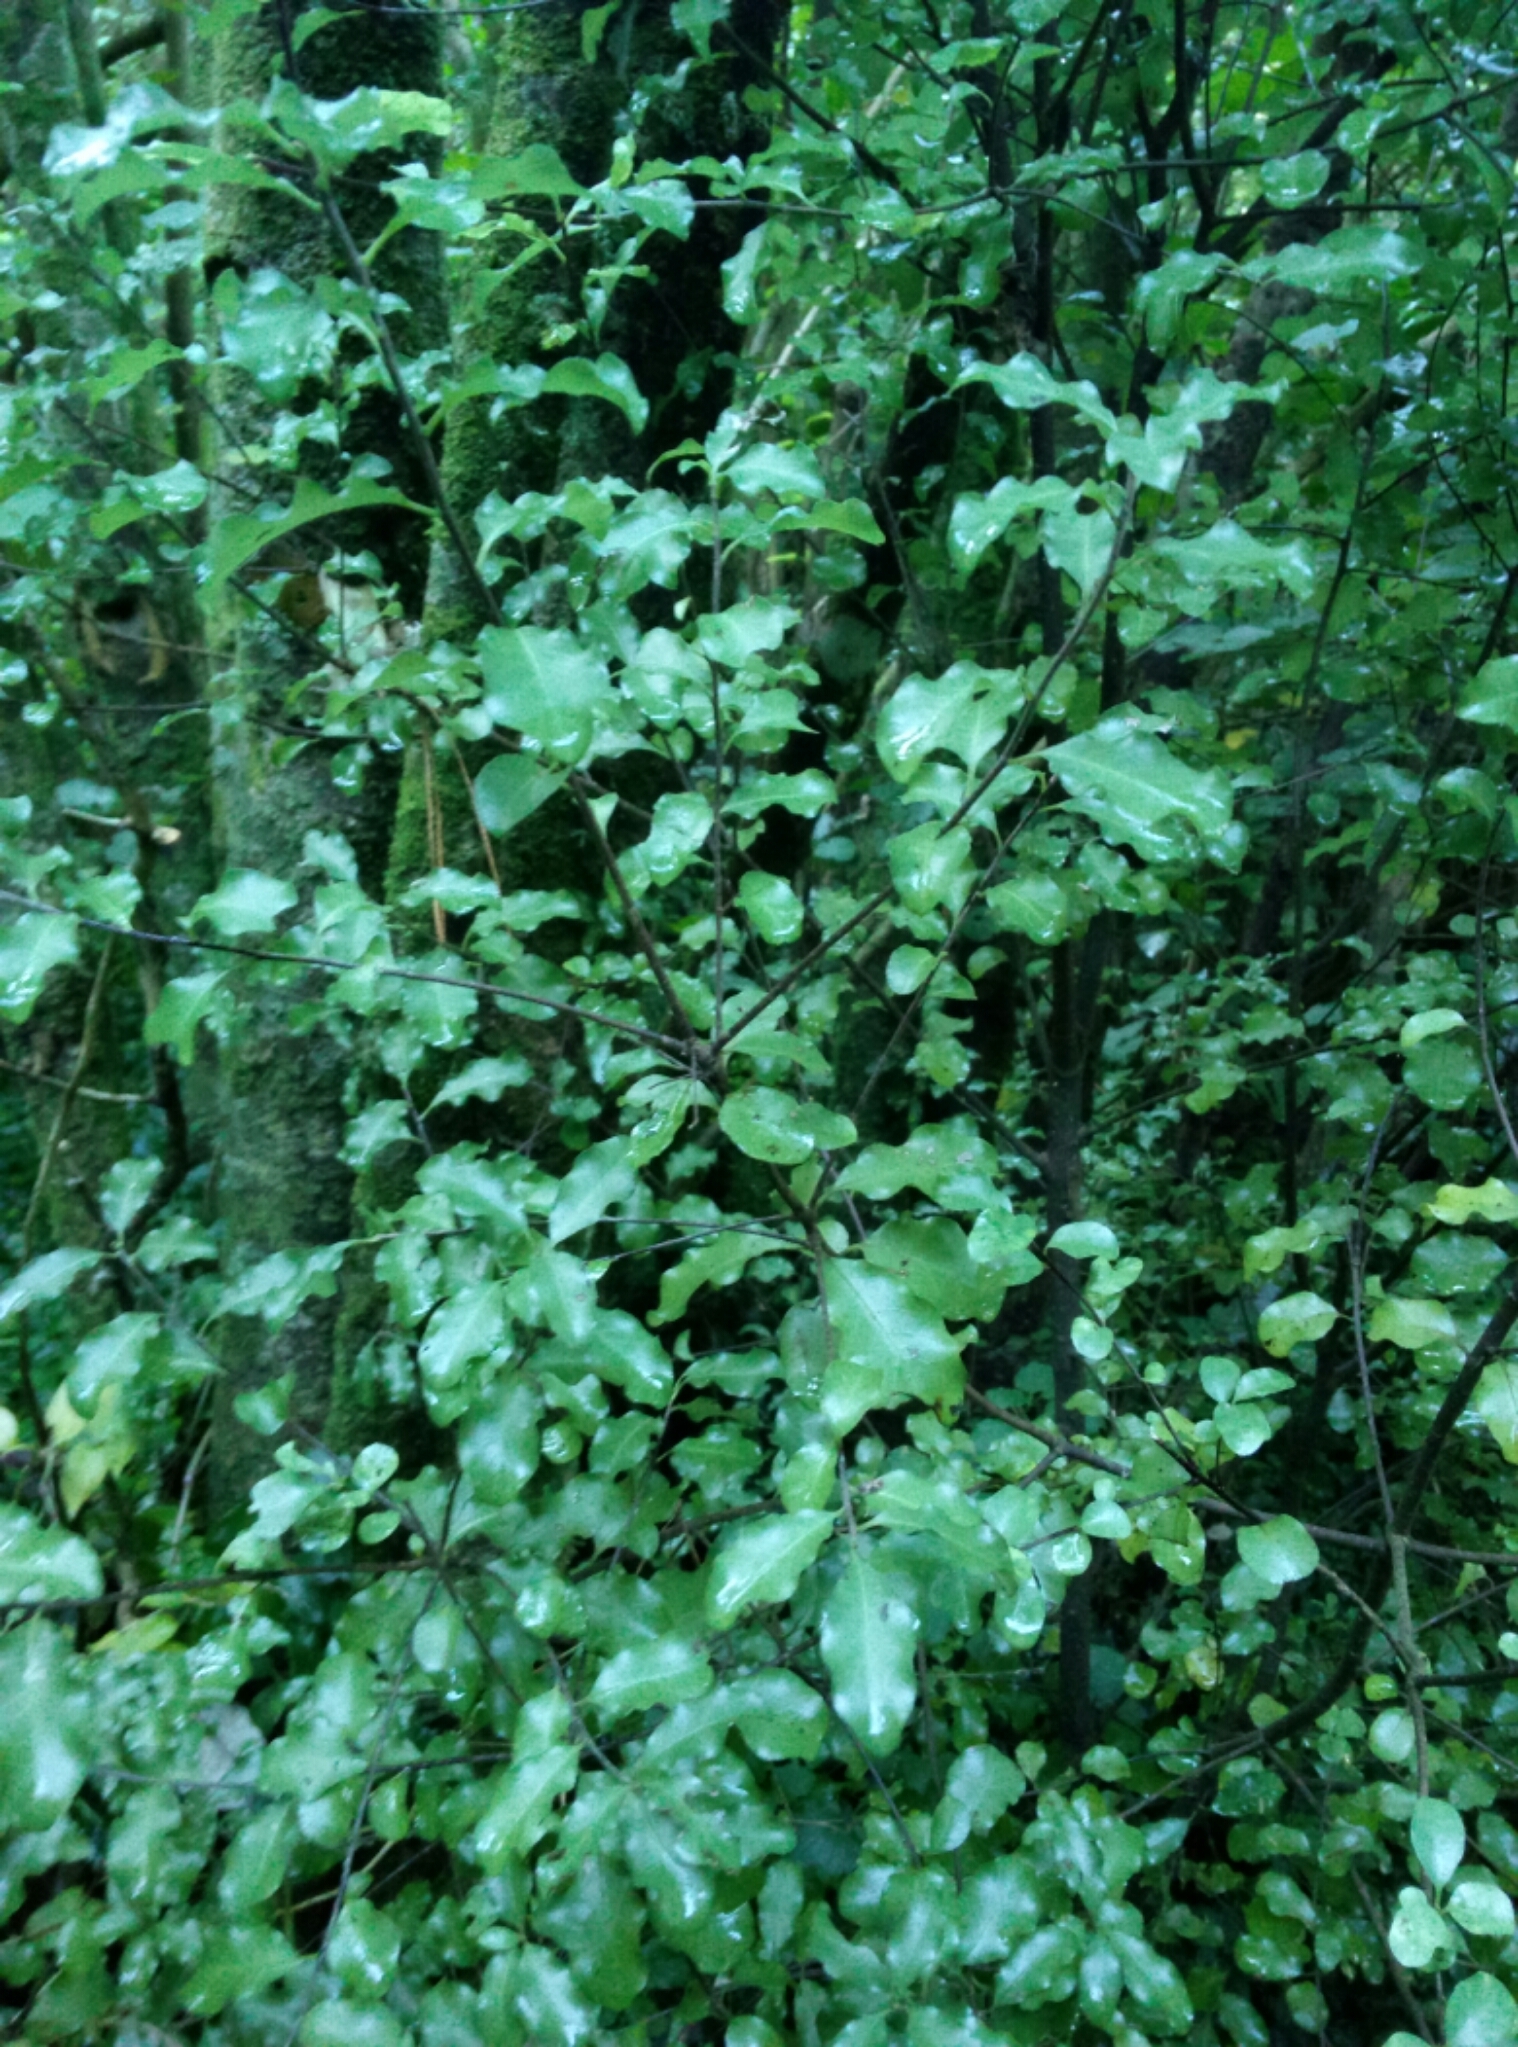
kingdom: Plantae
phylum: Tracheophyta
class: Magnoliopsida
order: Apiales
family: Pittosporaceae
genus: Pittosporum
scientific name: Pittosporum tenuifolium
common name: Kohuhu
